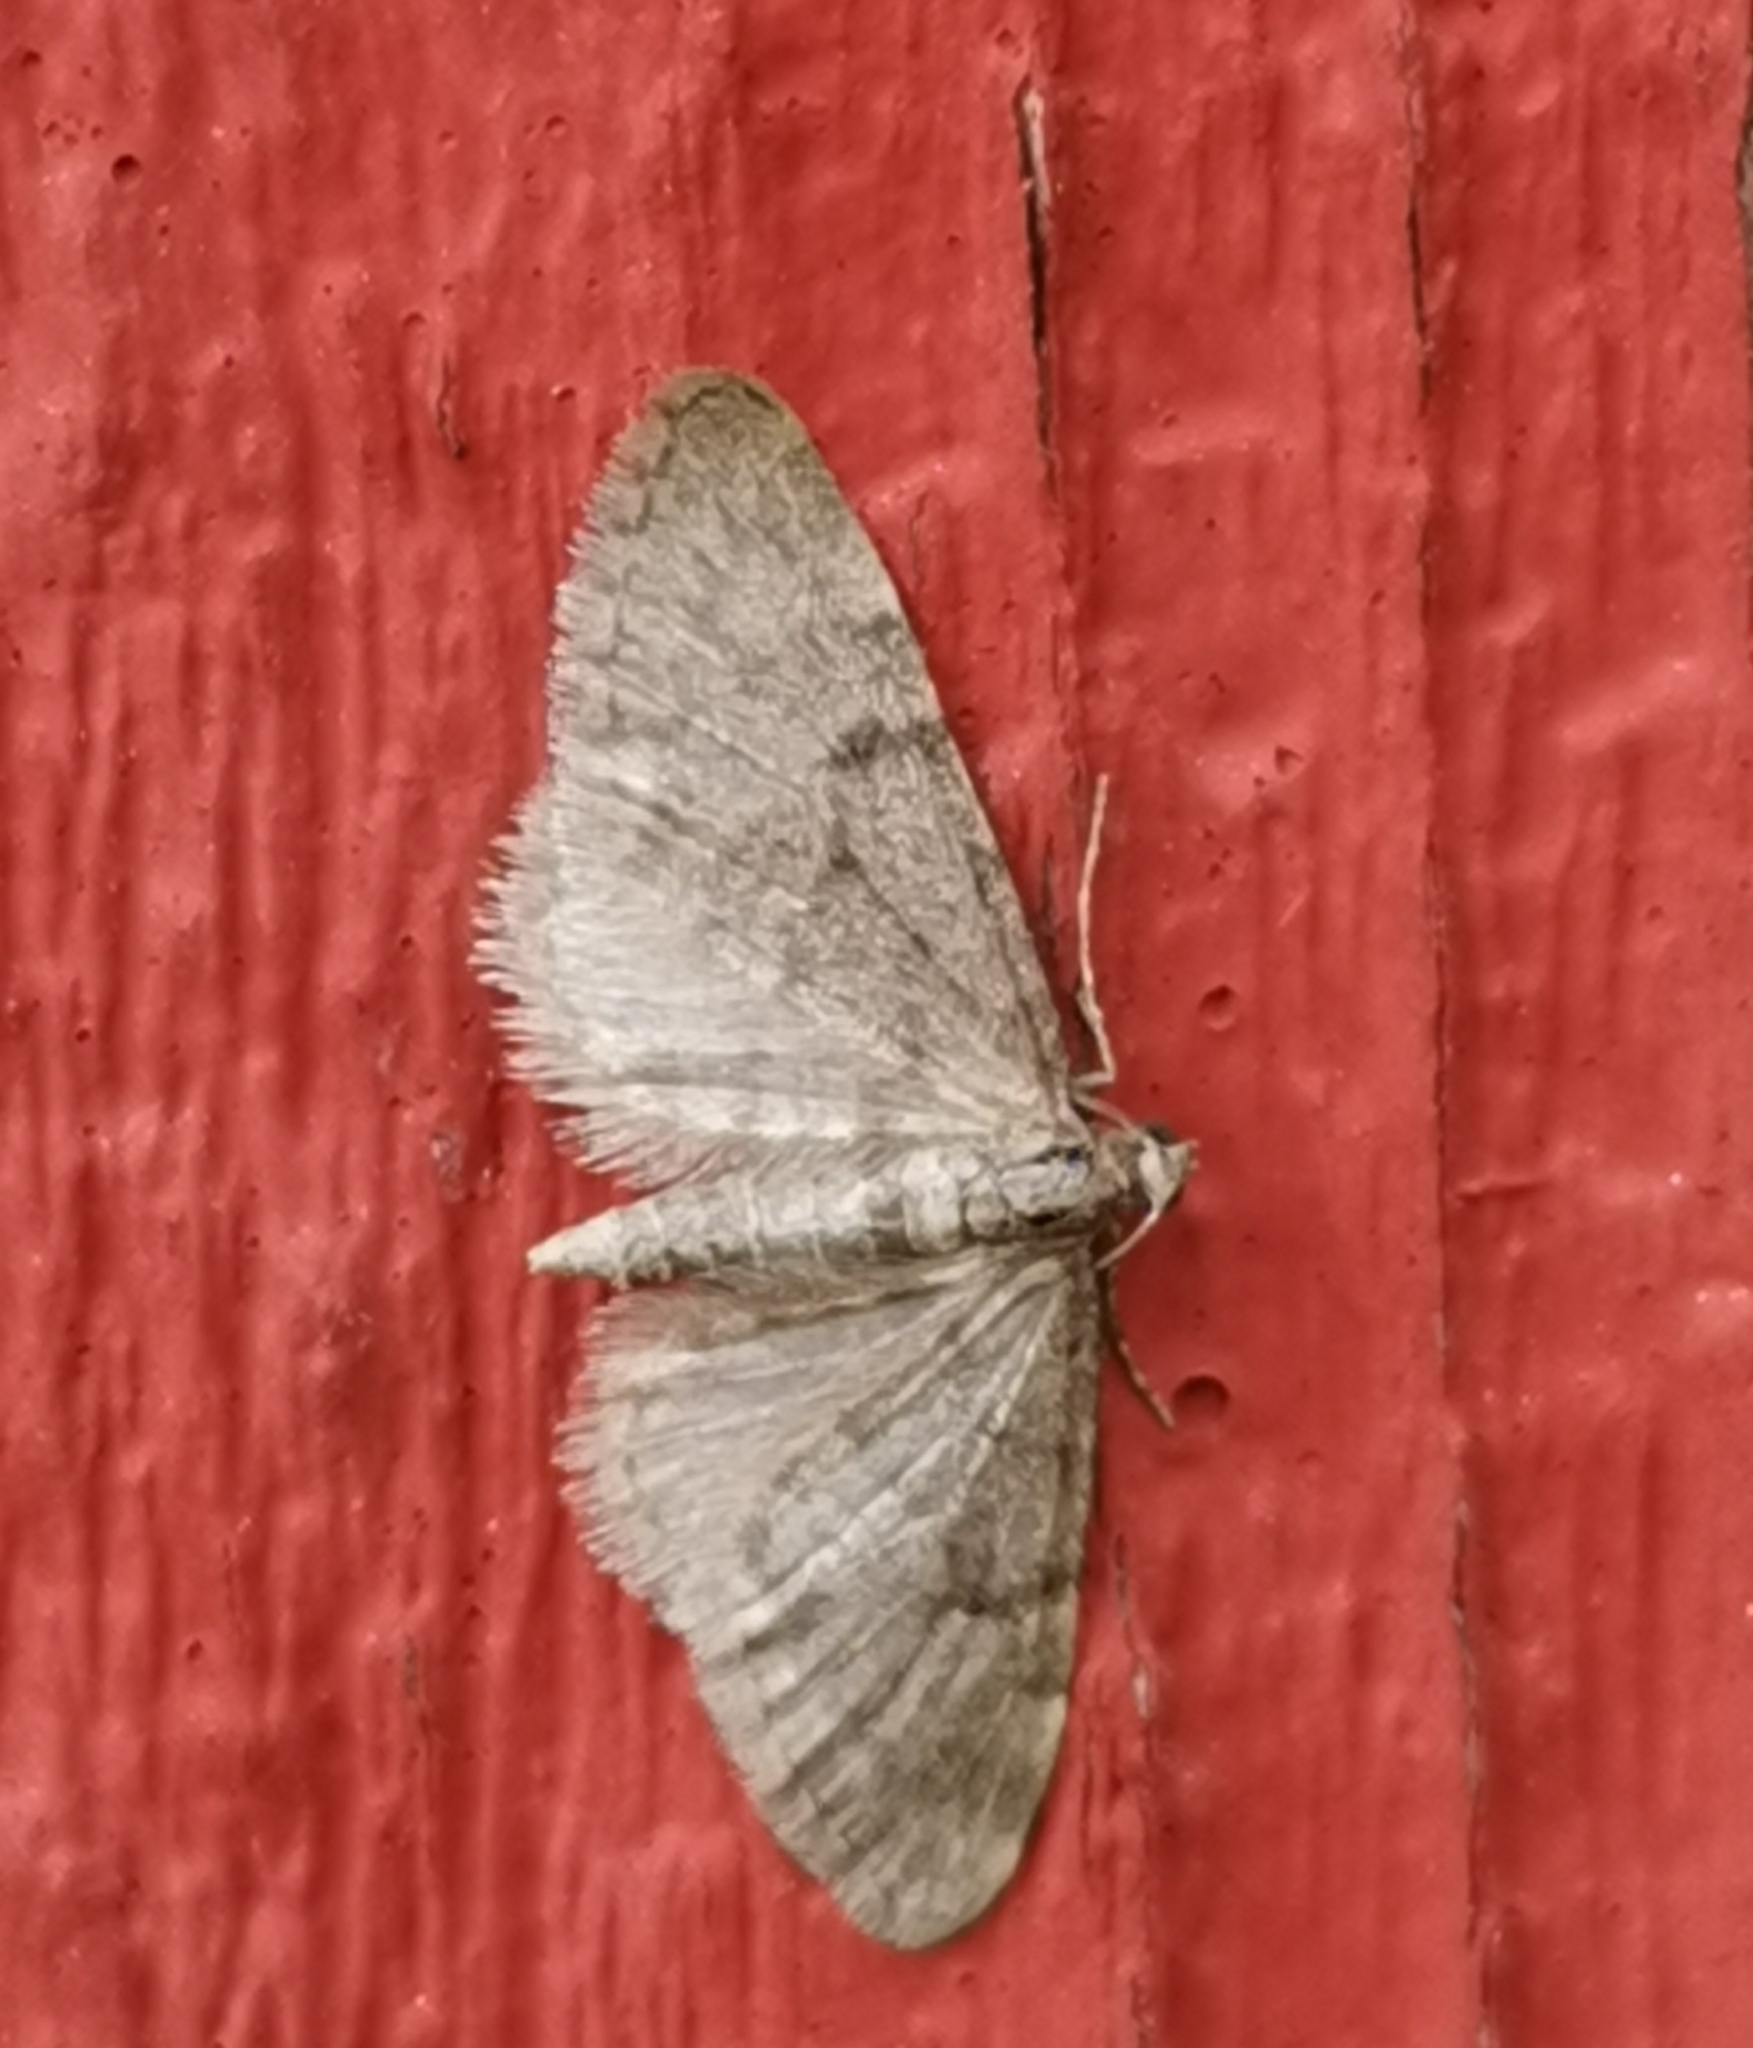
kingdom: Animalia
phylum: Arthropoda
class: Insecta
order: Lepidoptera
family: Geometridae
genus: Eupithecia
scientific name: Eupithecia indigata
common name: Ochreous pug
